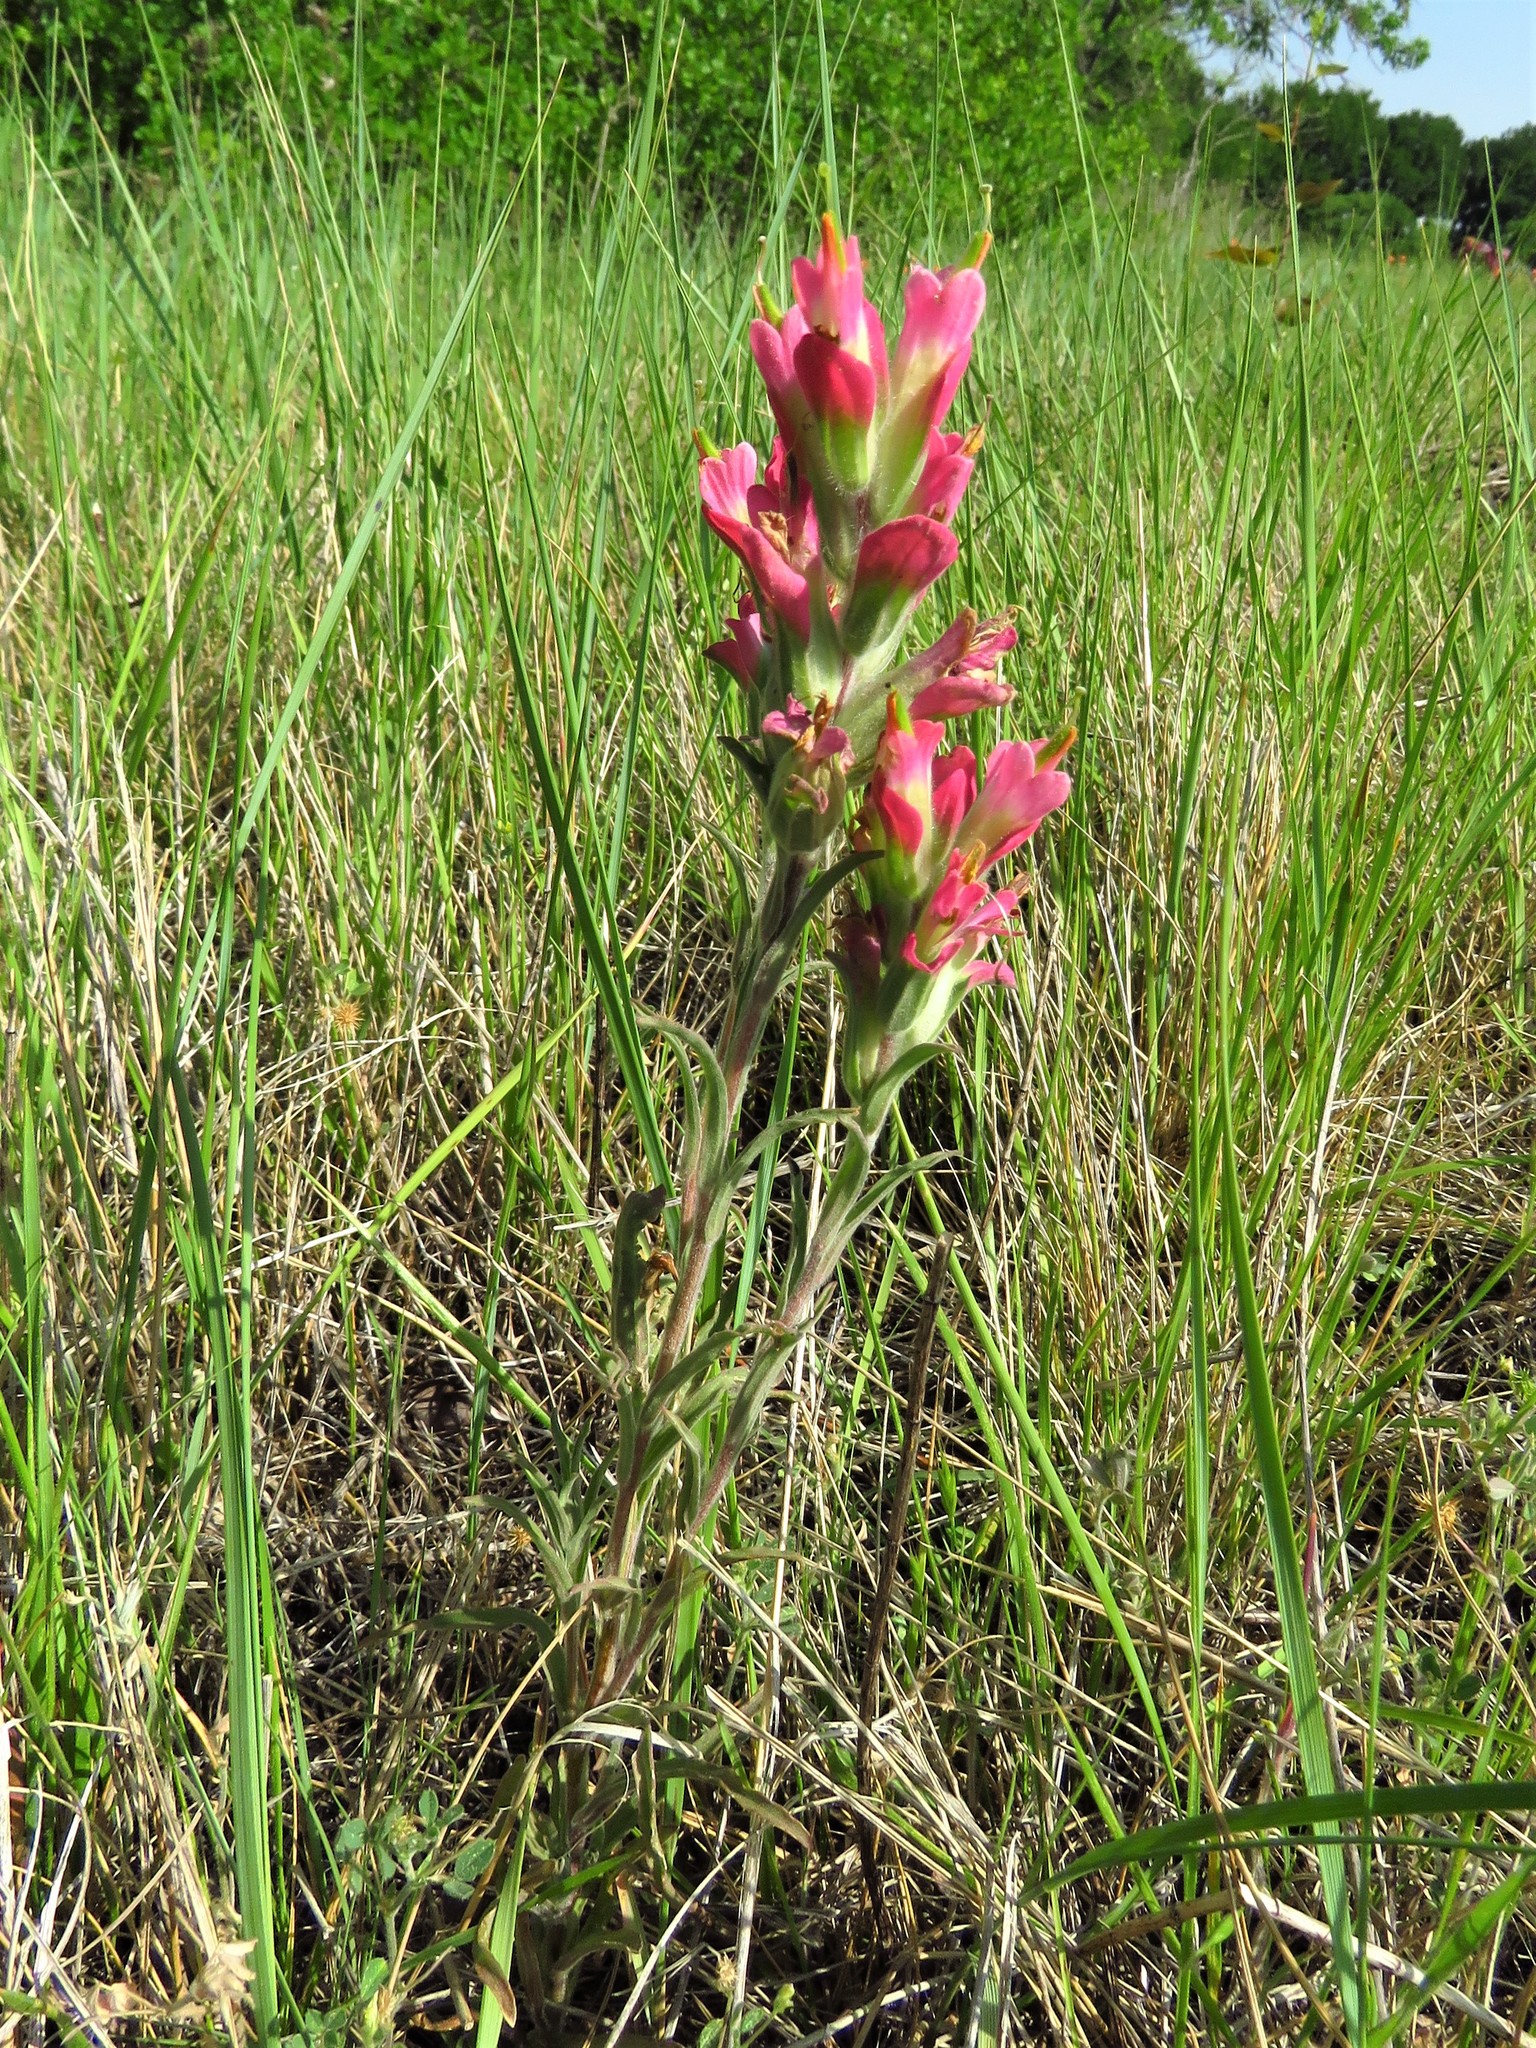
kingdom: Plantae
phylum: Tracheophyta
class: Magnoliopsida
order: Lamiales
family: Orobanchaceae
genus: Castilleja
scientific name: Castilleja purpurea
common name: Plains paintbrush
